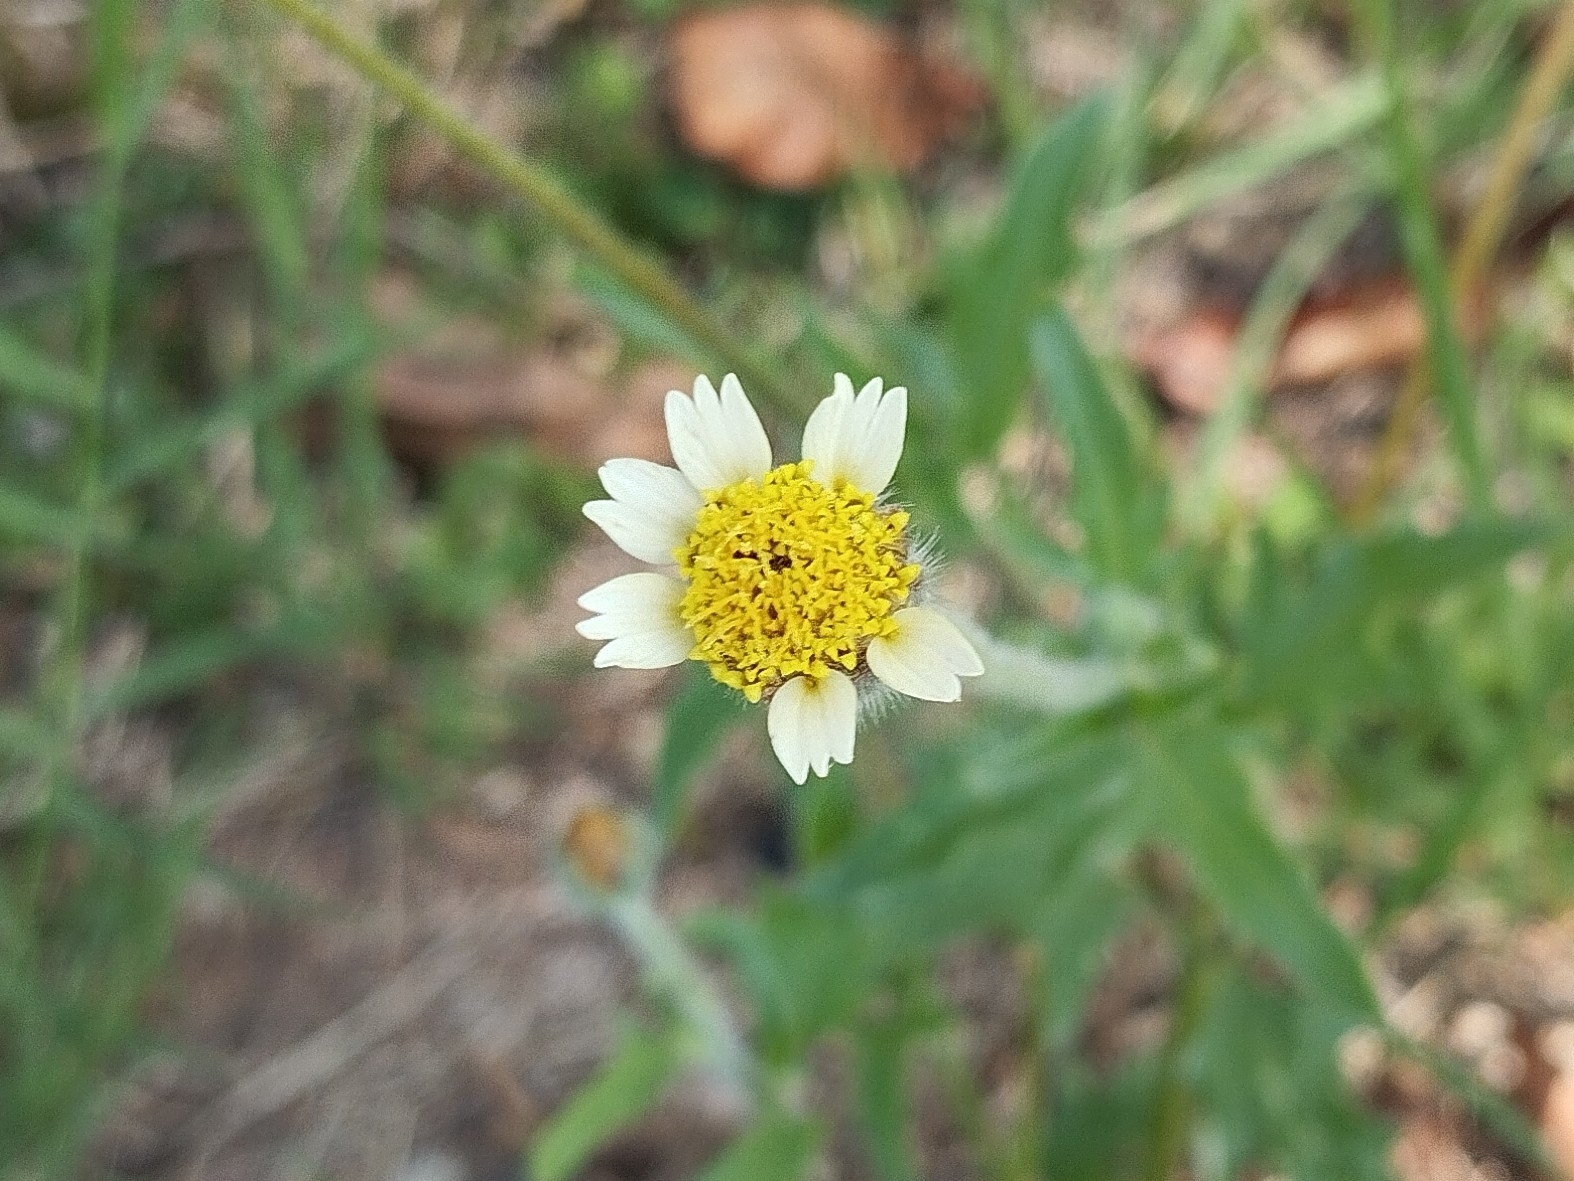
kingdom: Plantae
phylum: Tracheophyta
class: Magnoliopsida
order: Asterales
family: Asteraceae
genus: Tridax
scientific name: Tridax procumbens
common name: Coatbuttons
